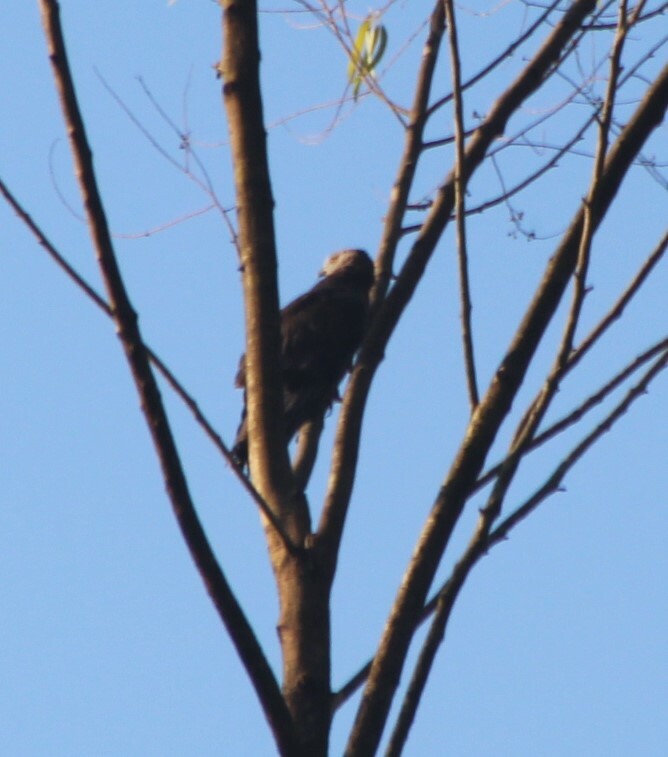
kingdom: Animalia
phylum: Chordata
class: Aves
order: Accipitriformes
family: Accipitridae
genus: Pernis
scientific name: Pernis apivorus
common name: European honey buzzard
